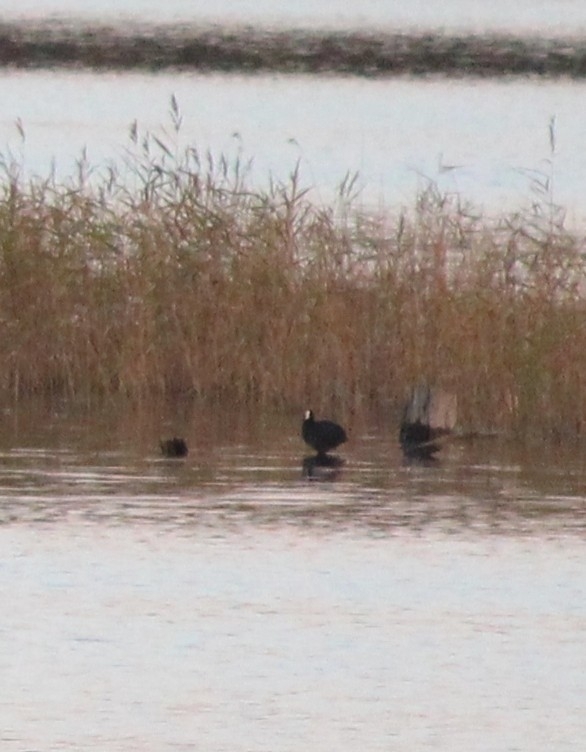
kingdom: Animalia
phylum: Chordata
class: Aves
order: Gruiformes
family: Rallidae
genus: Fulica
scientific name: Fulica atra
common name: Eurasian coot
